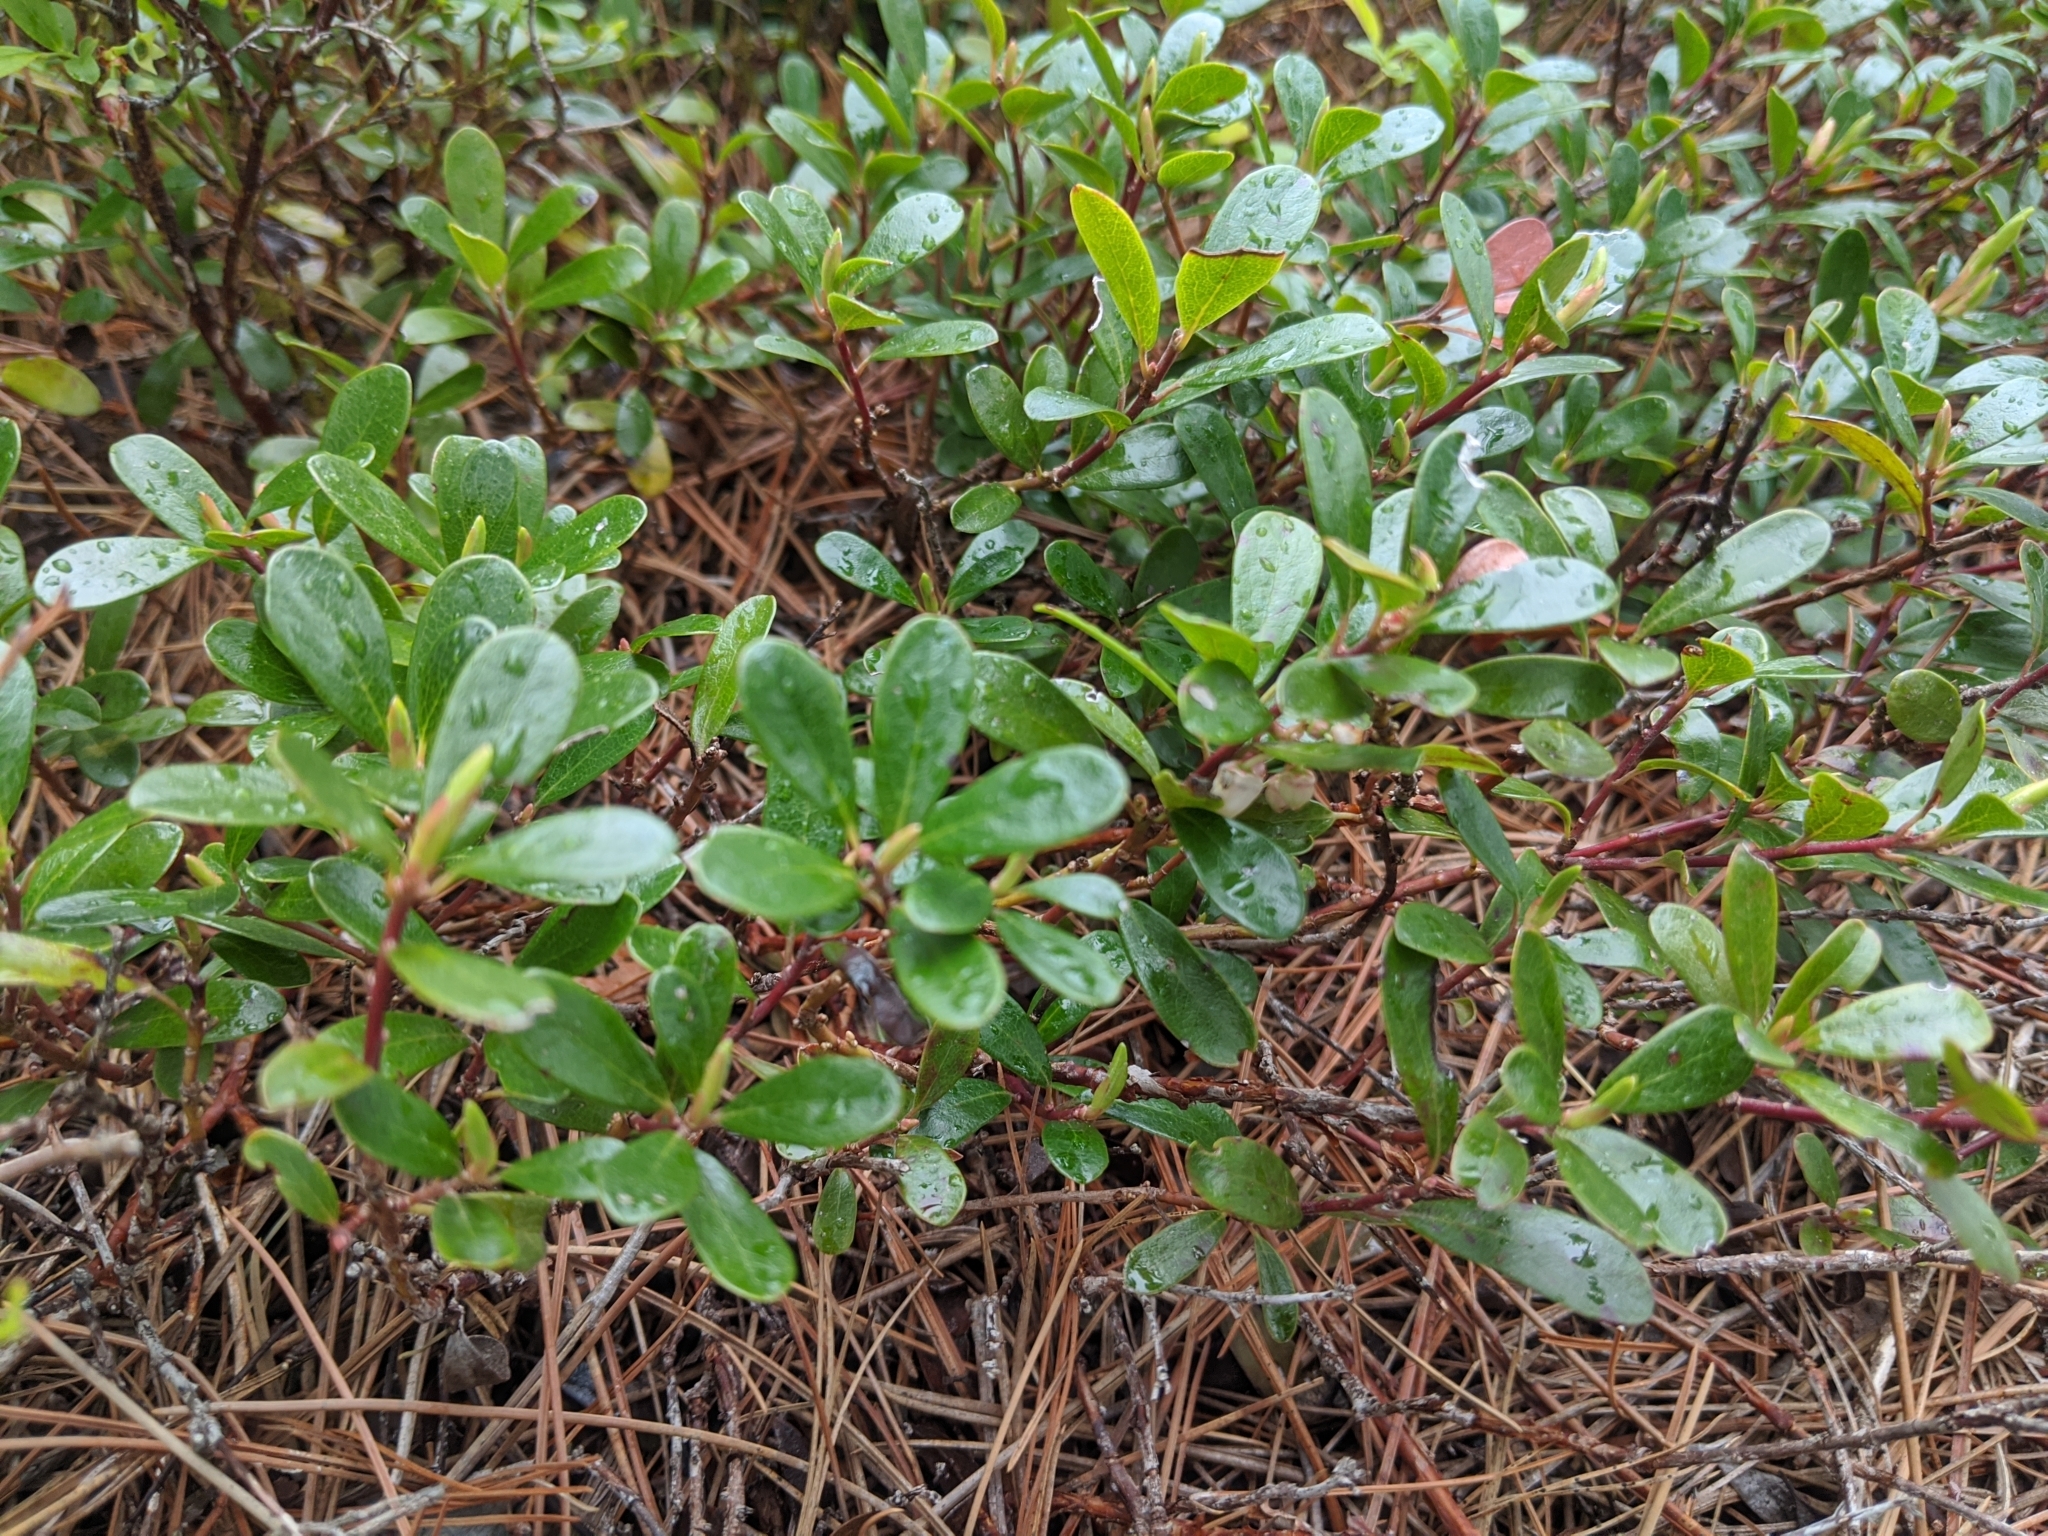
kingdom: Plantae
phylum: Tracheophyta
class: Magnoliopsida
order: Ericales
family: Ericaceae
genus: Arctostaphylos
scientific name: Arctostaphylos uva-ursi
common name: Bearberry
